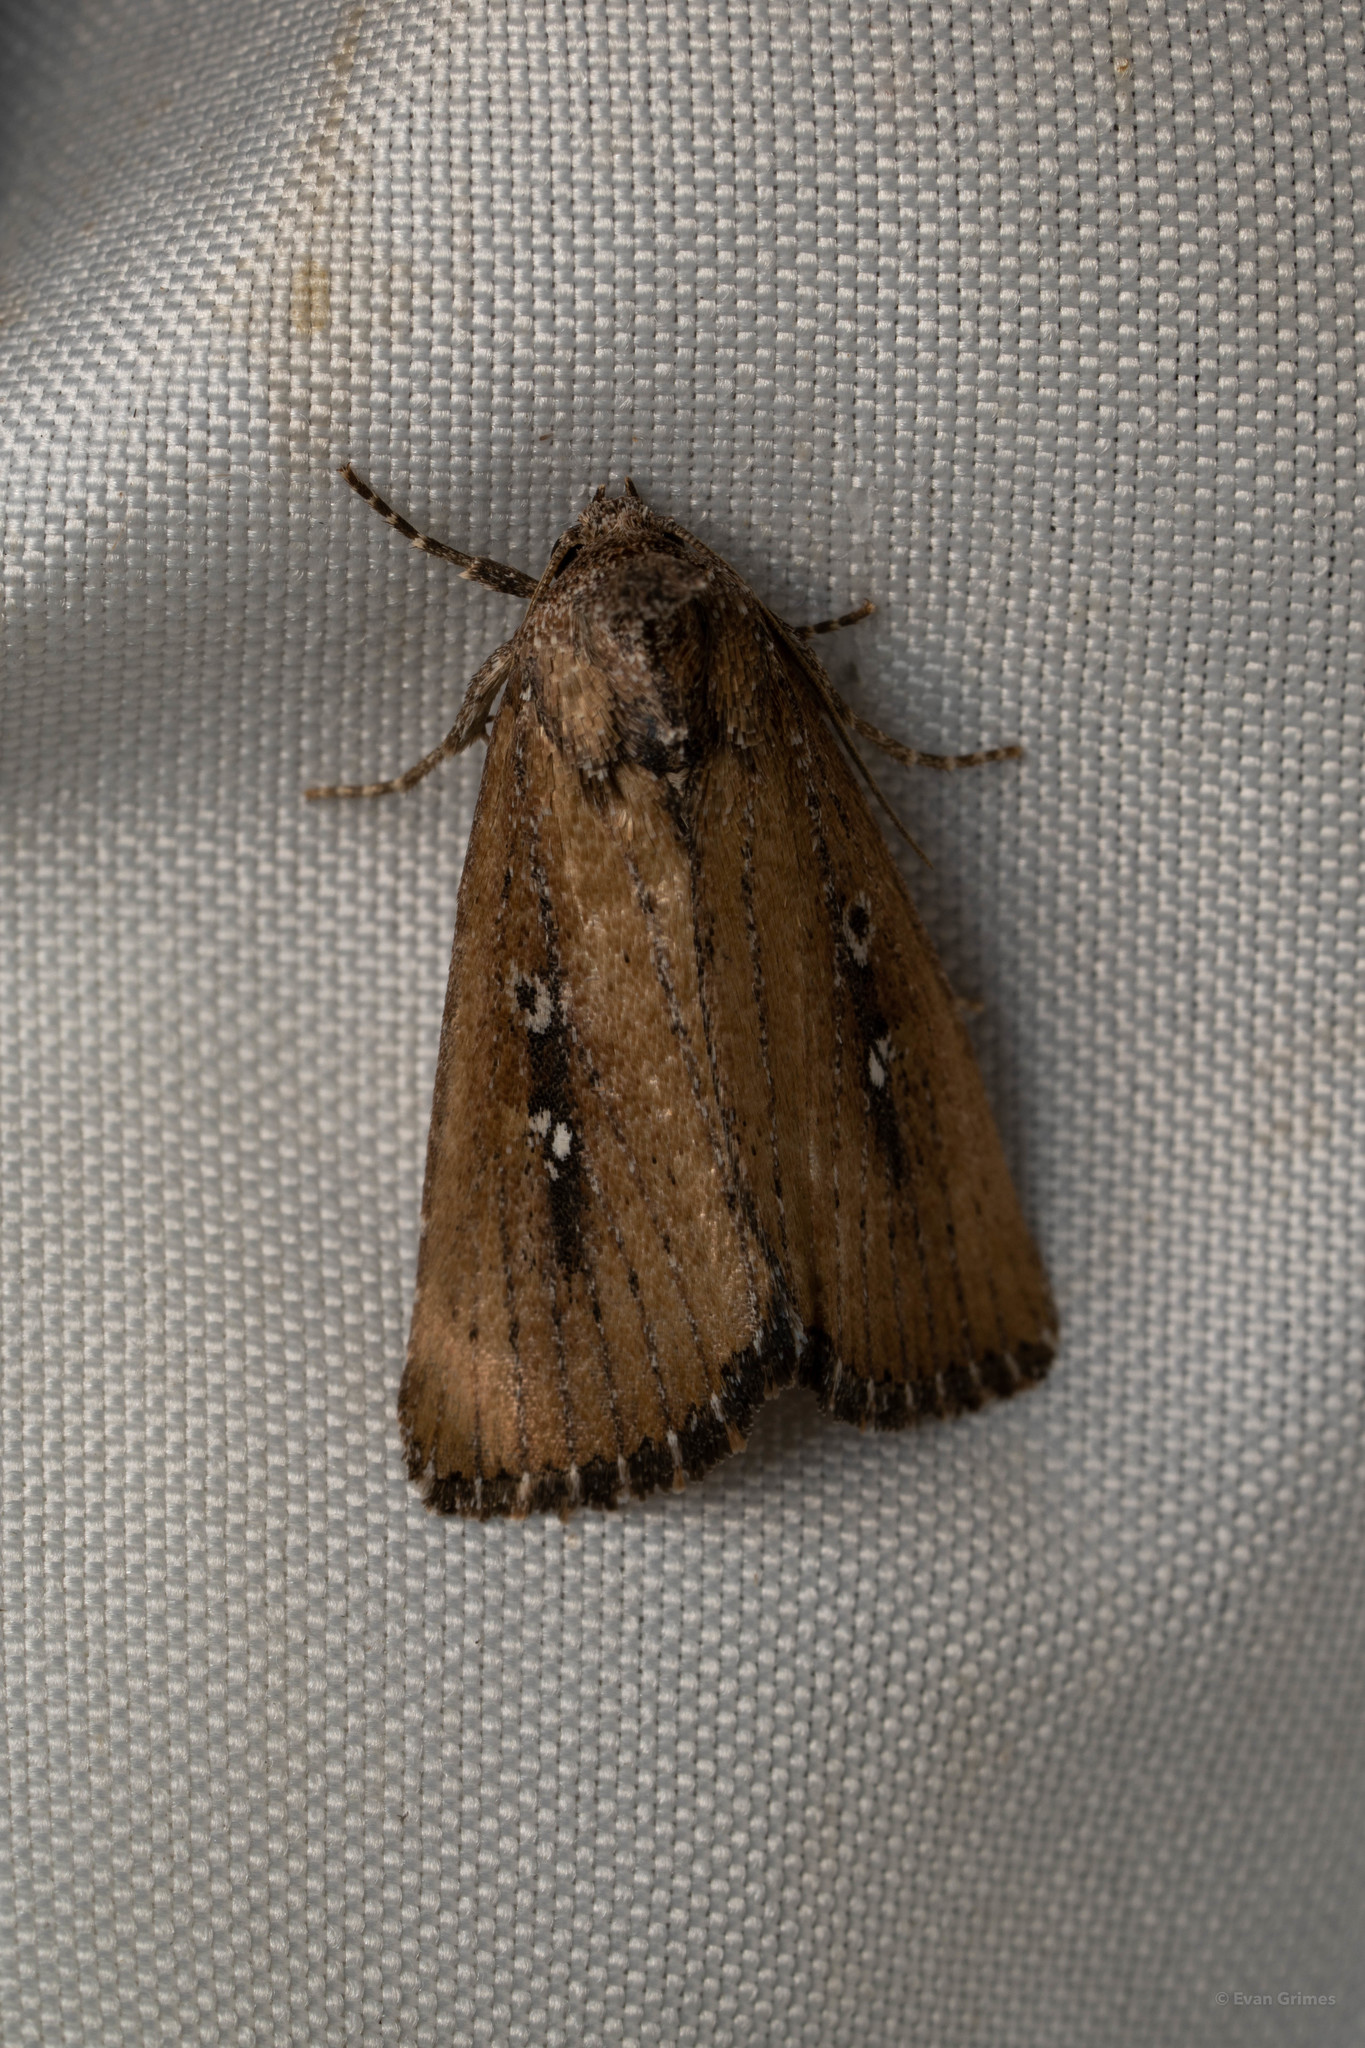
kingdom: Animalia
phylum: Arthropoda
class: Insecta
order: Lepidoptera
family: Noctuidae
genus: Condica
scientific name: Condica videns
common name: White-dotted groundling
